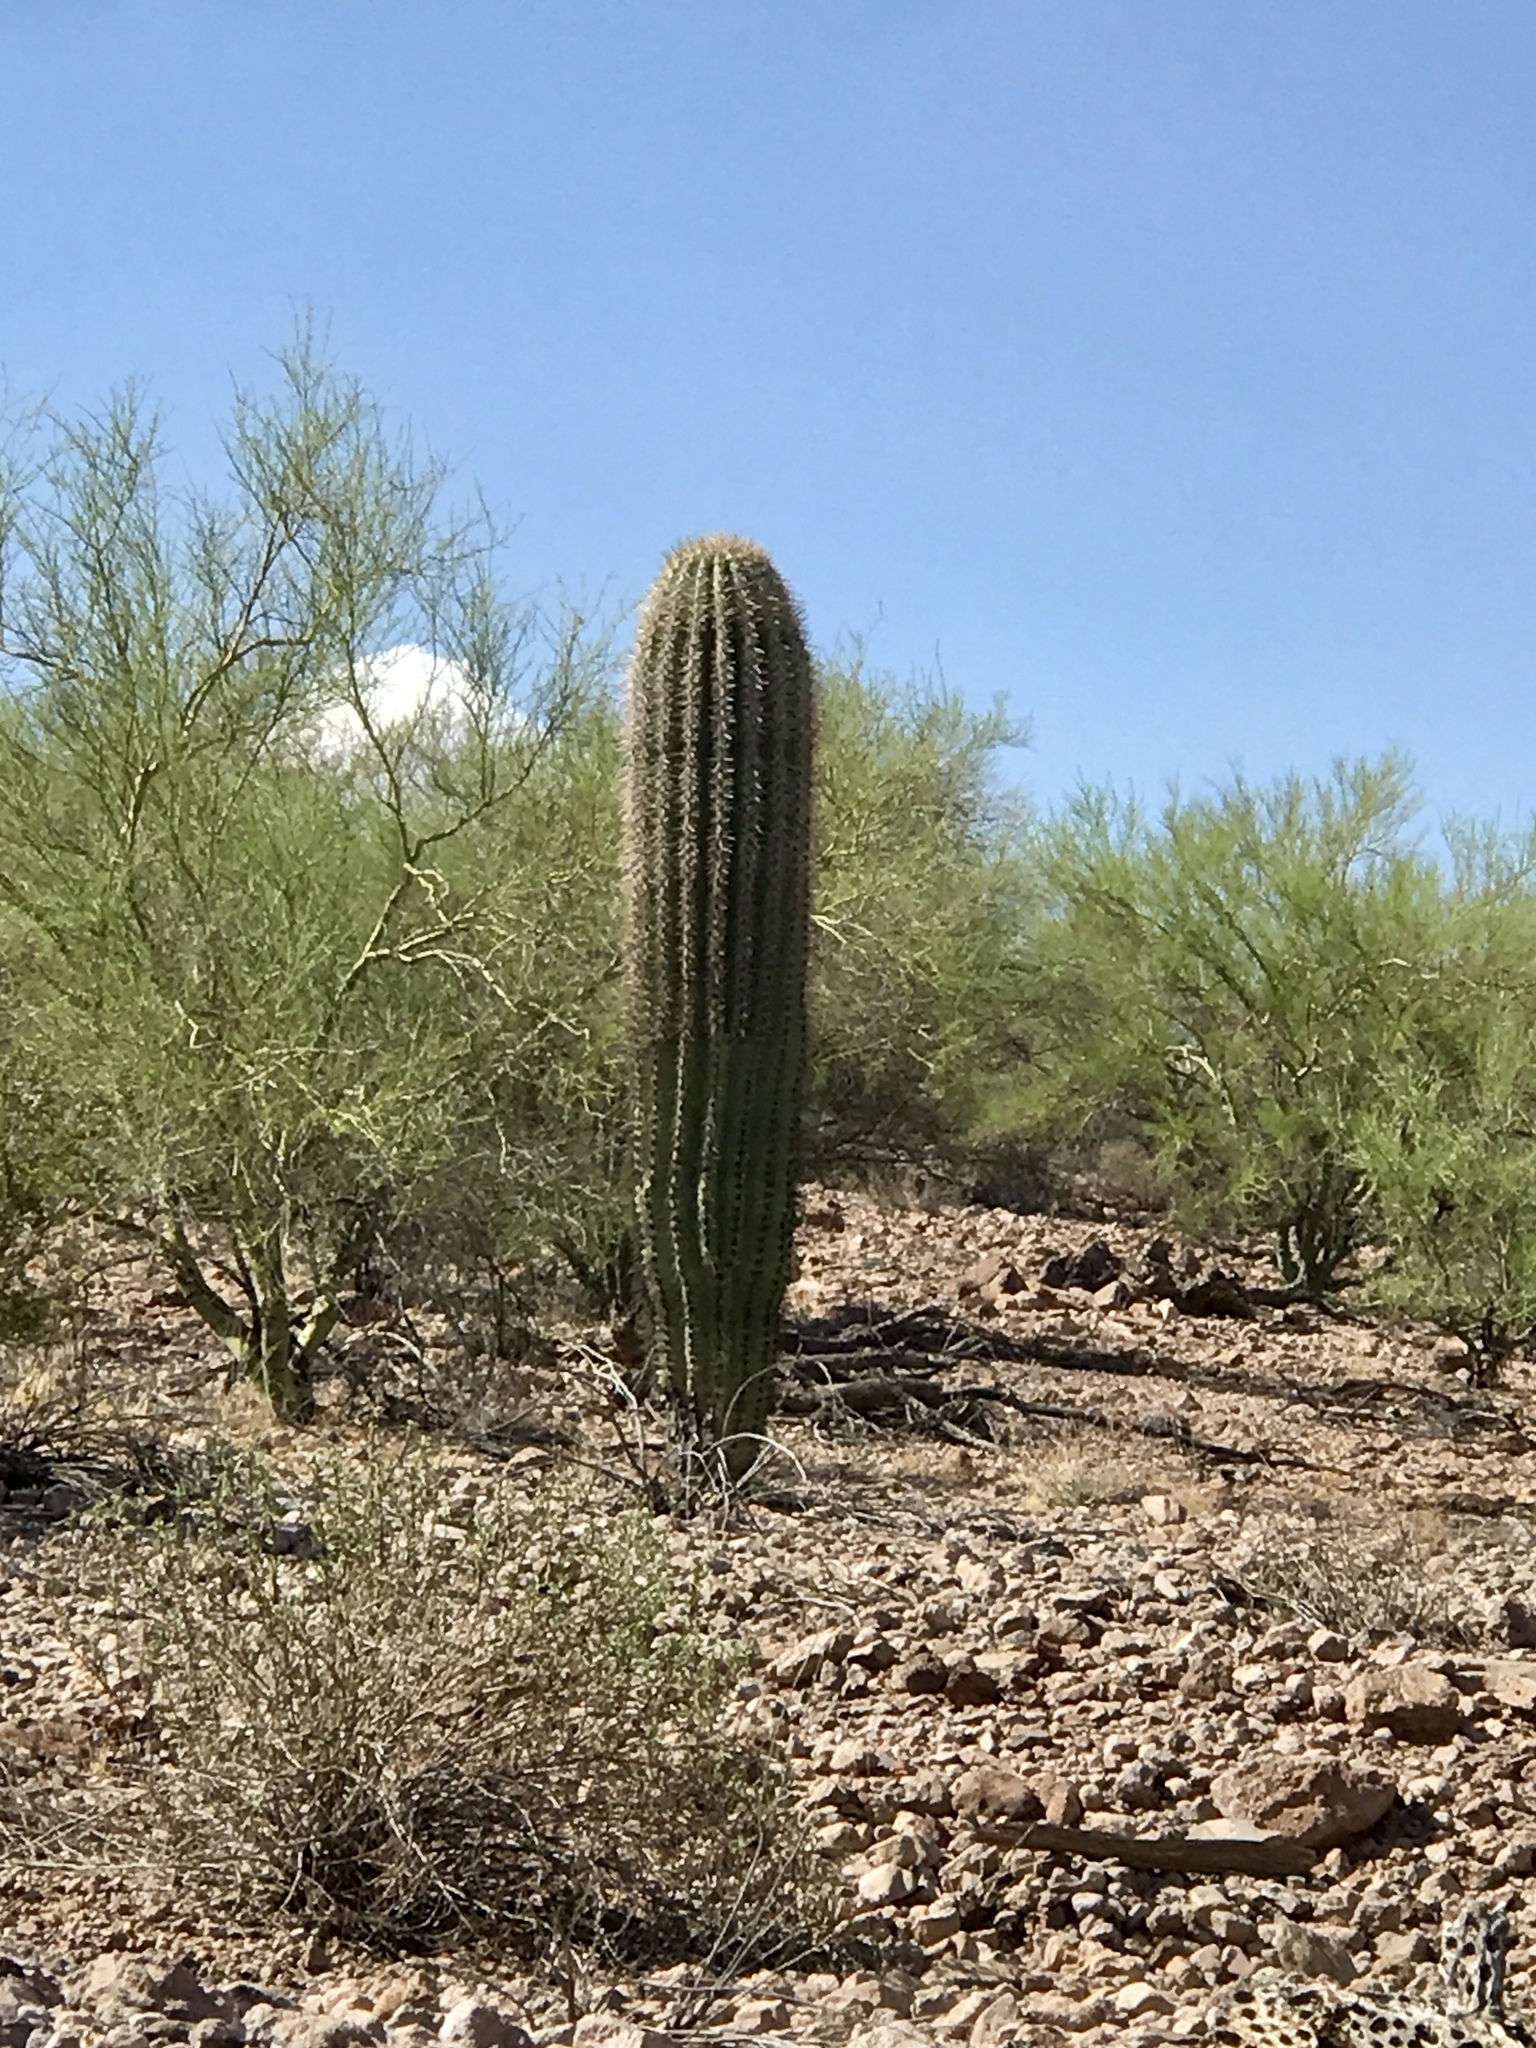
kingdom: Plantae
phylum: Tracheophyta
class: Magnoliopsida
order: Caryophyllales
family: Cactaceae
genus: Carnegiea
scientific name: Carnegiea gigantea
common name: Saguaro
